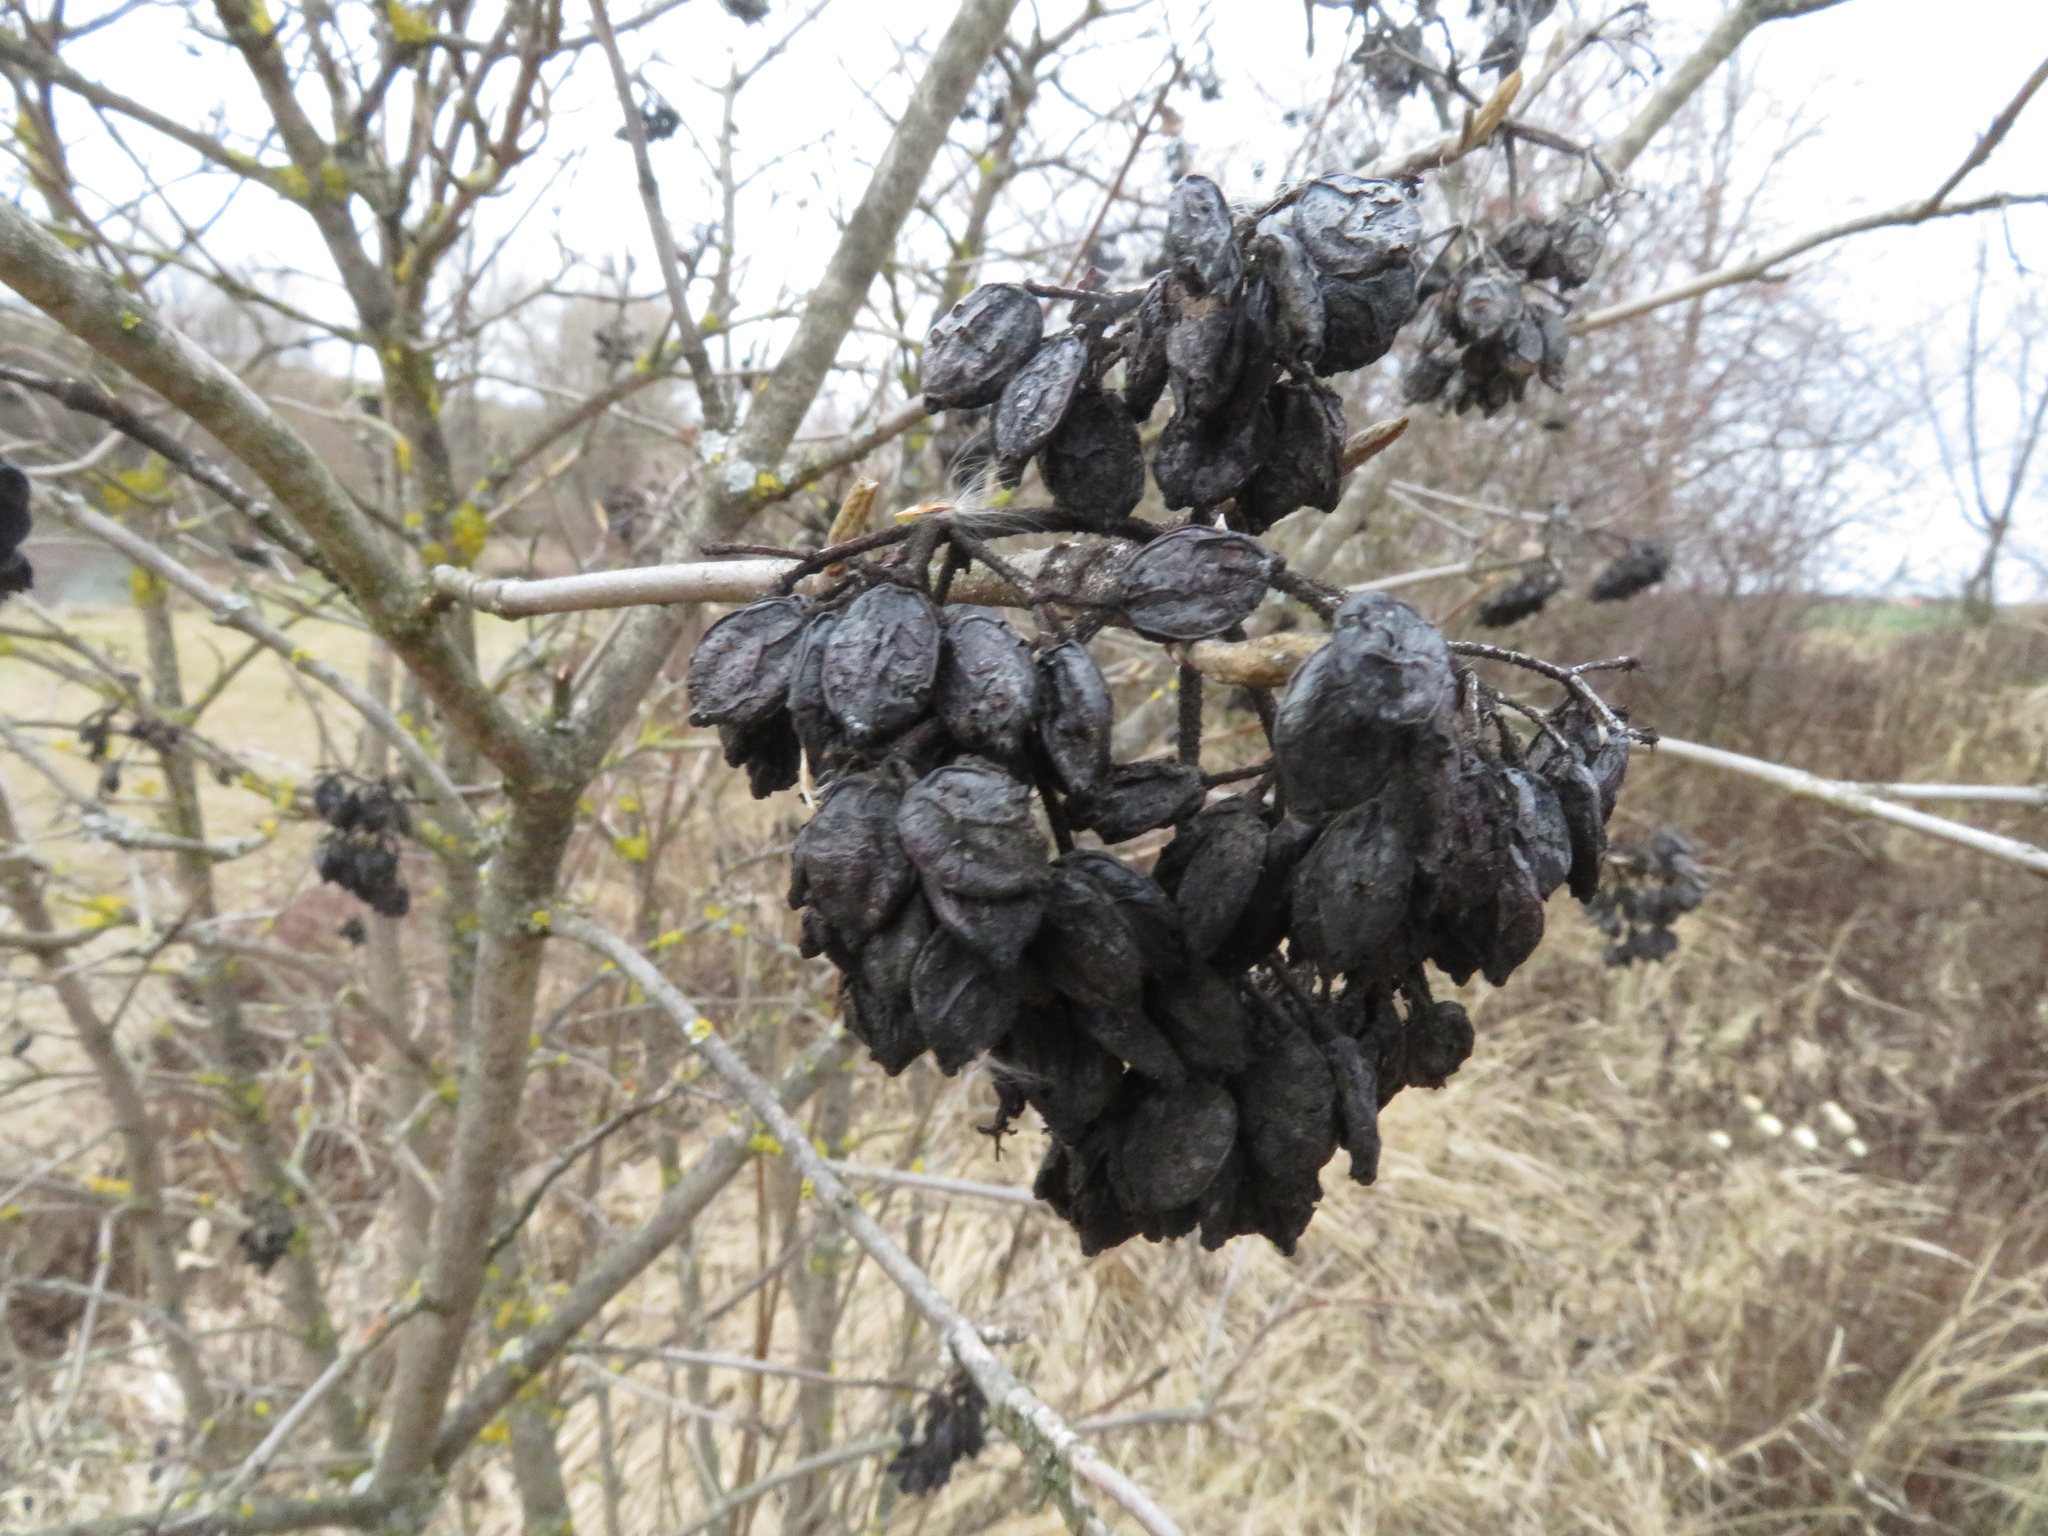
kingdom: Plantae
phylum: Tracheophyta
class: Magnoliopsida
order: Dipsacales
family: Viburnaceae
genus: Viburnum
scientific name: Viburnum lantana
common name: Wayfaring tree
